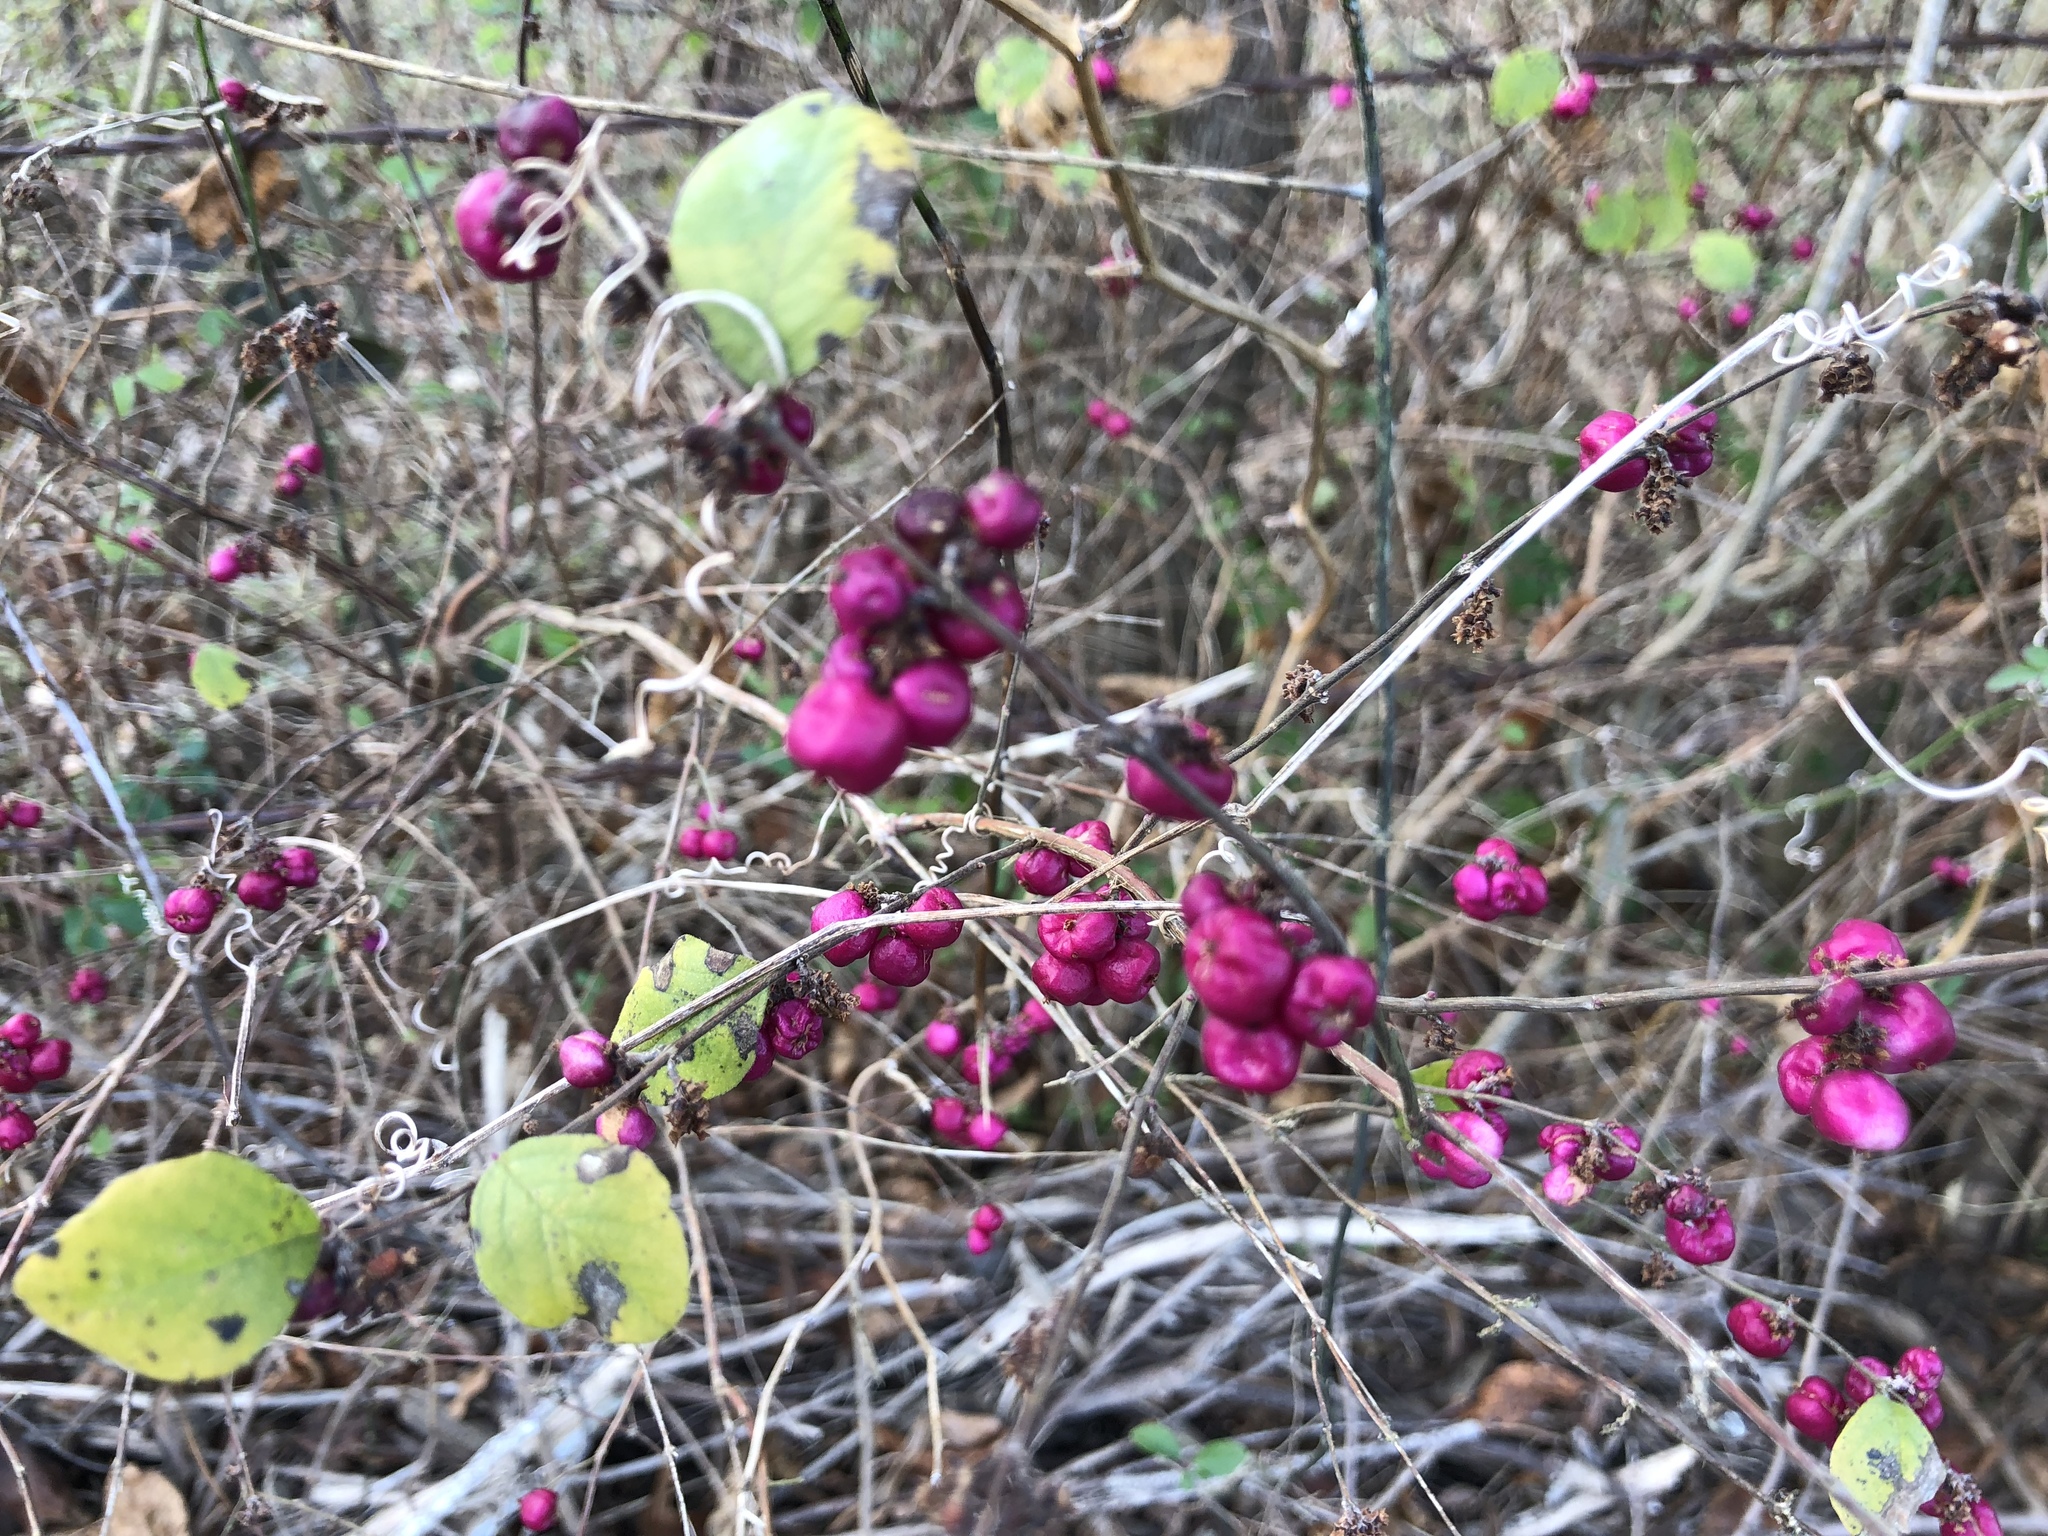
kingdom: Plantae
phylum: Tracheophyta
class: Magnoliopsida
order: Dipsacales
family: Caprifoliaceae
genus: Symphoricarpos
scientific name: Symphoricarpos orbiculatus
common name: Coralberry
